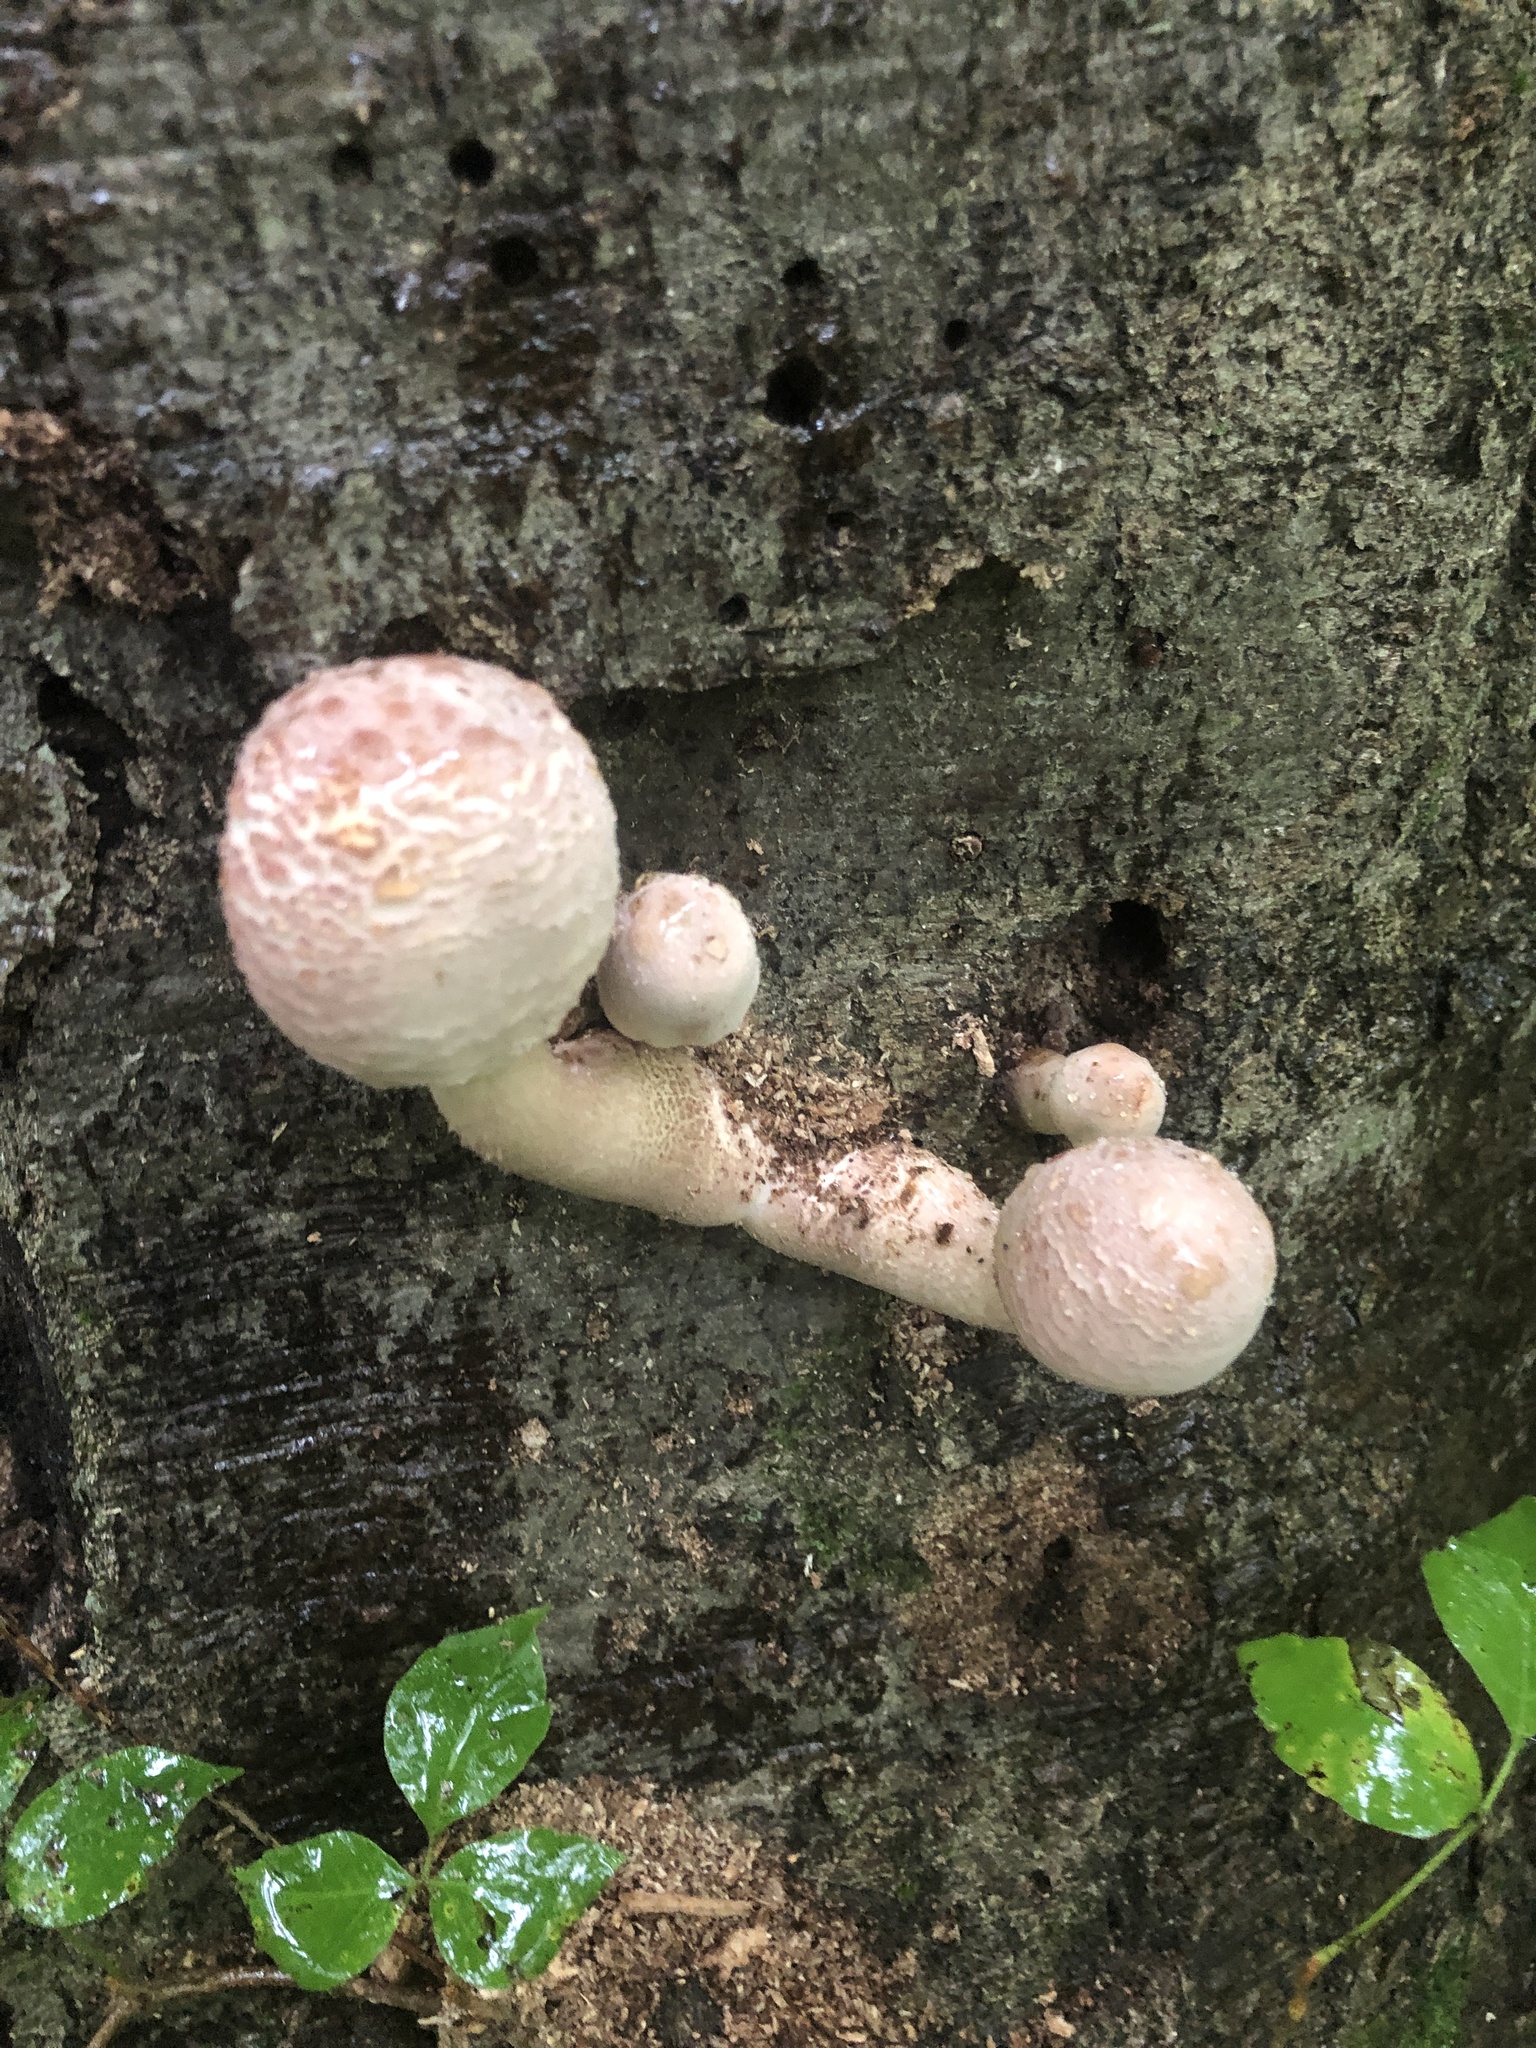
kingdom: Fungi
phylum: Basidiomycota
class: Agaricomycetes
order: Agaricales
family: Agaricaceae
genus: Leucoagaricus
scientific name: Leucoagaricus americanus
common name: Reddening lepiota
